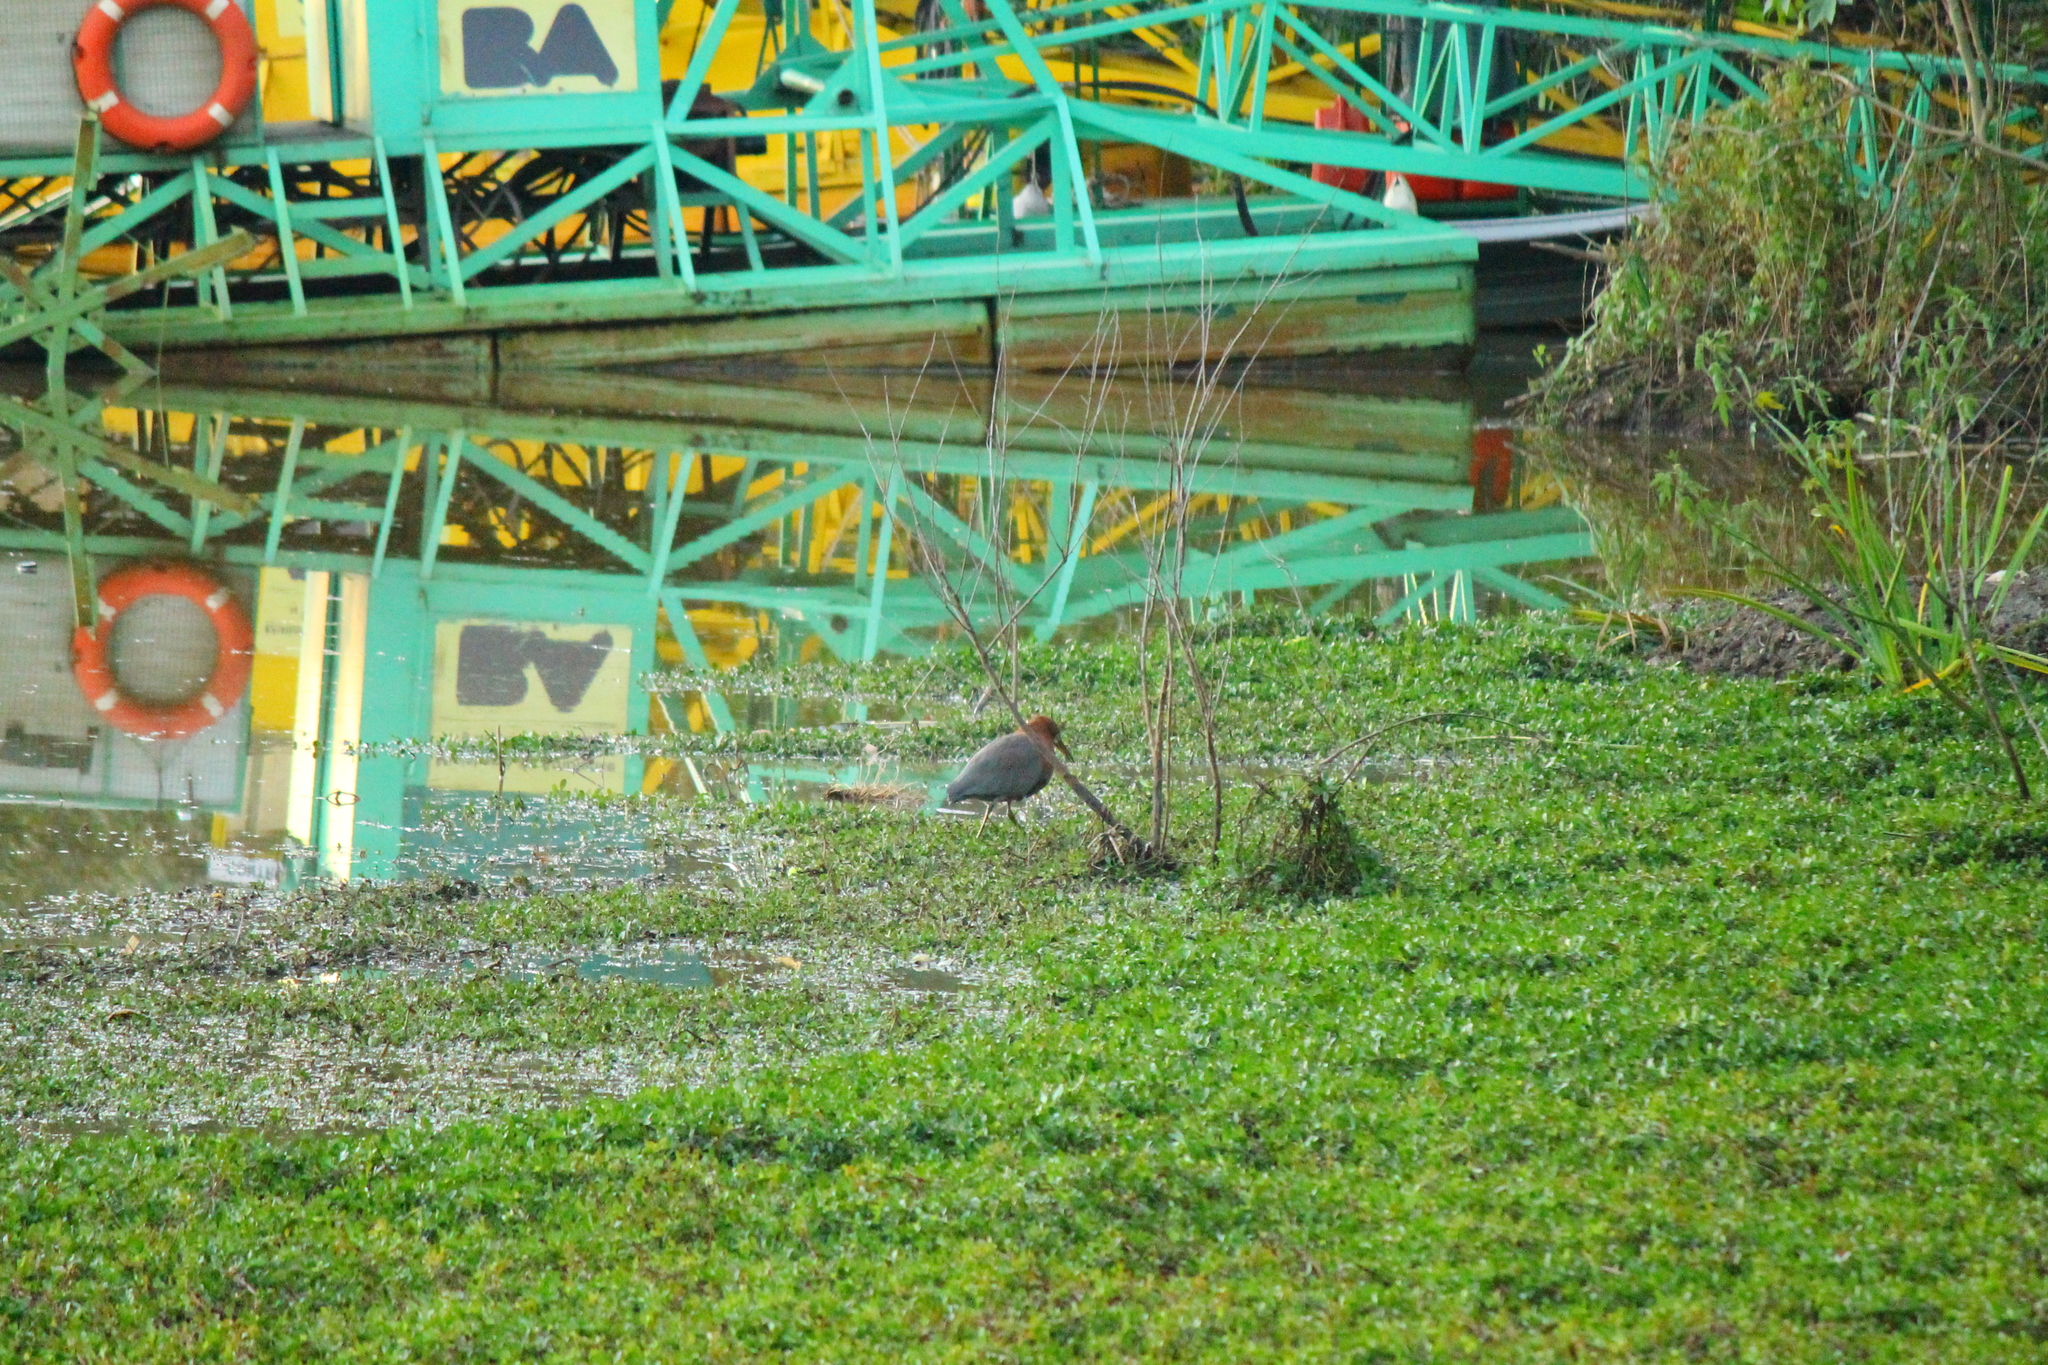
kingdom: Animalia
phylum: Chordata
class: Aves
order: Pelecaniformes
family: Ardeidae
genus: Tigrisoma
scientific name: Tigrisoma lineatum
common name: Rufescent tiger-heron
